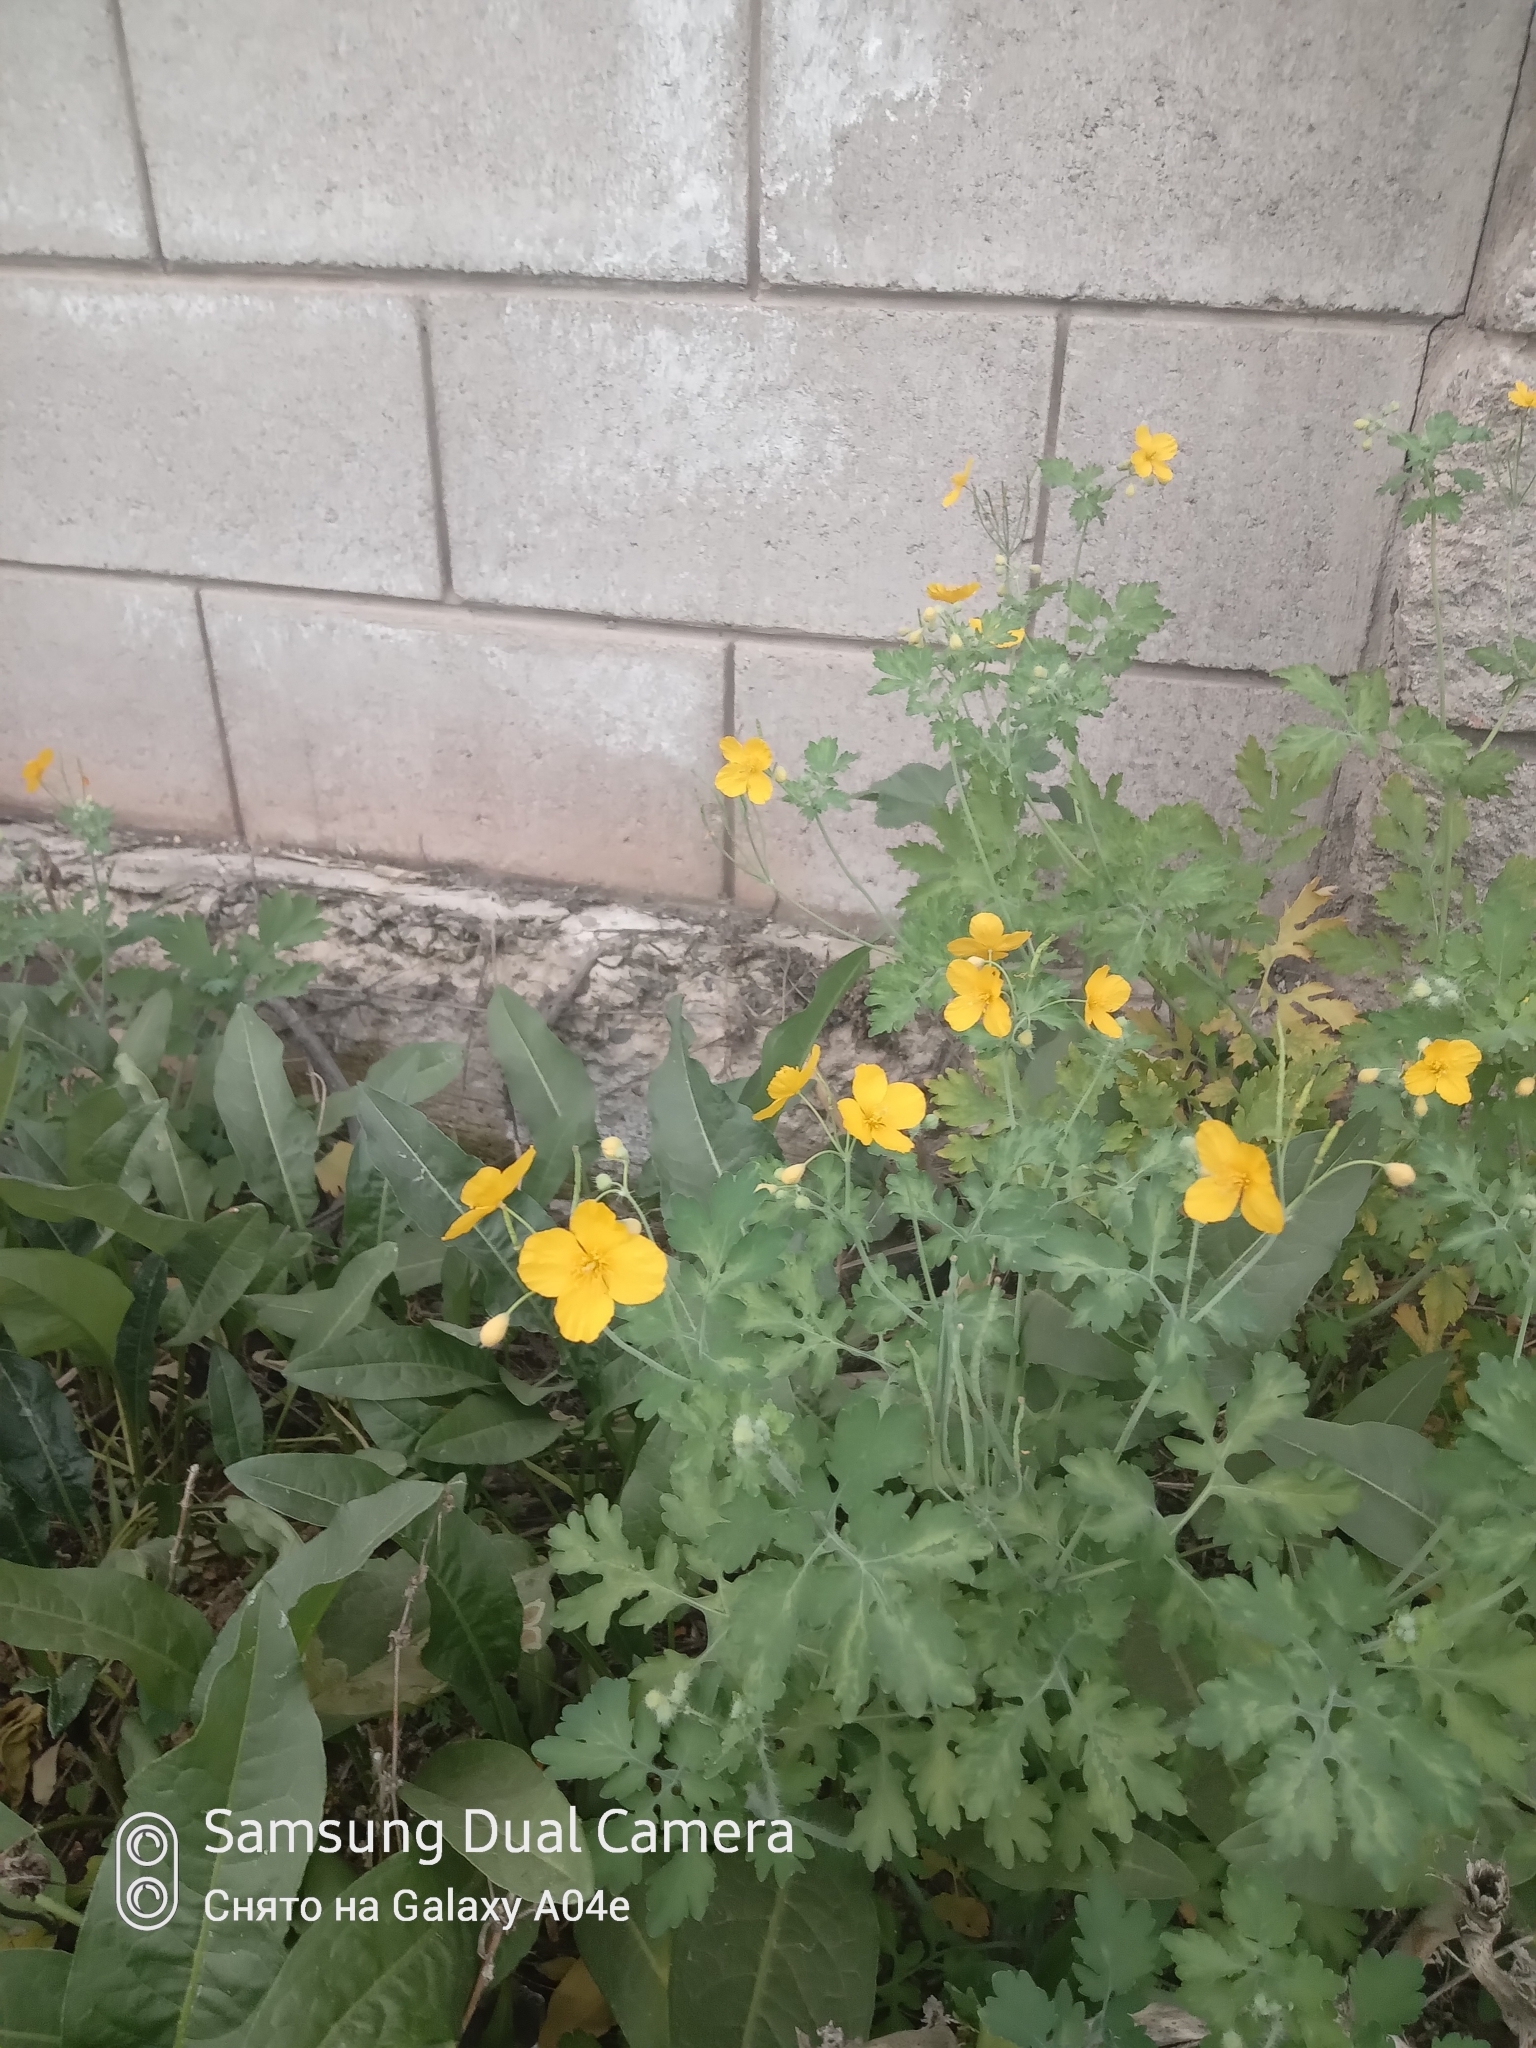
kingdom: Plantae
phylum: Tracheophyta
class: Magnoliopsida
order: Ranunculales
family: Papaveraceae
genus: Chelidonium
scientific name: Chelidonium majus
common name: Greater celandine
